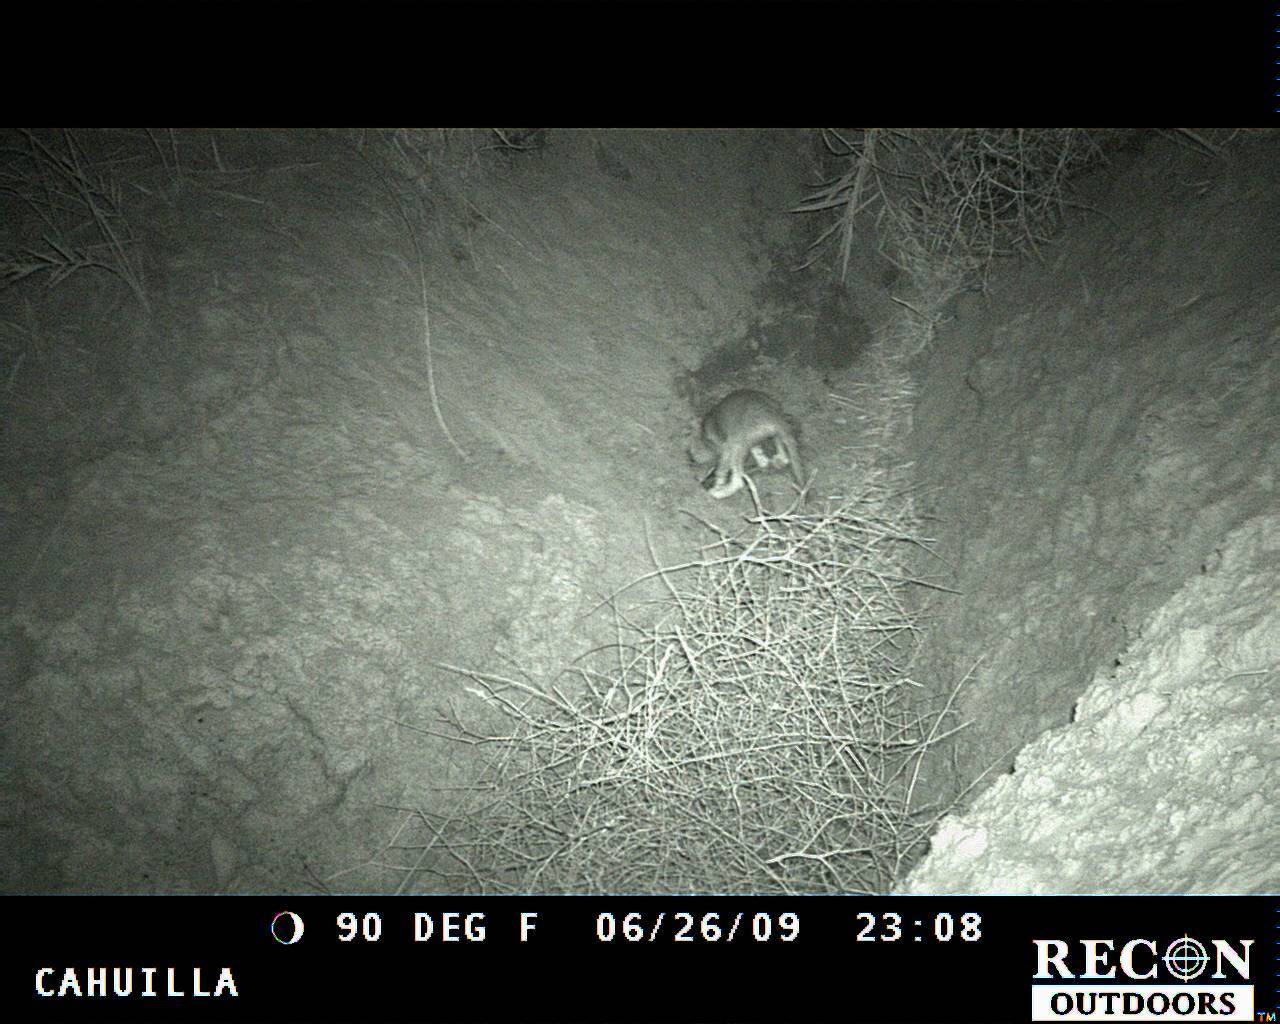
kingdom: Animalia
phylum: Chordata
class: Mammalia
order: Carnivora
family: Canidae
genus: Canis
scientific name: Canis latrans
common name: Coyote
